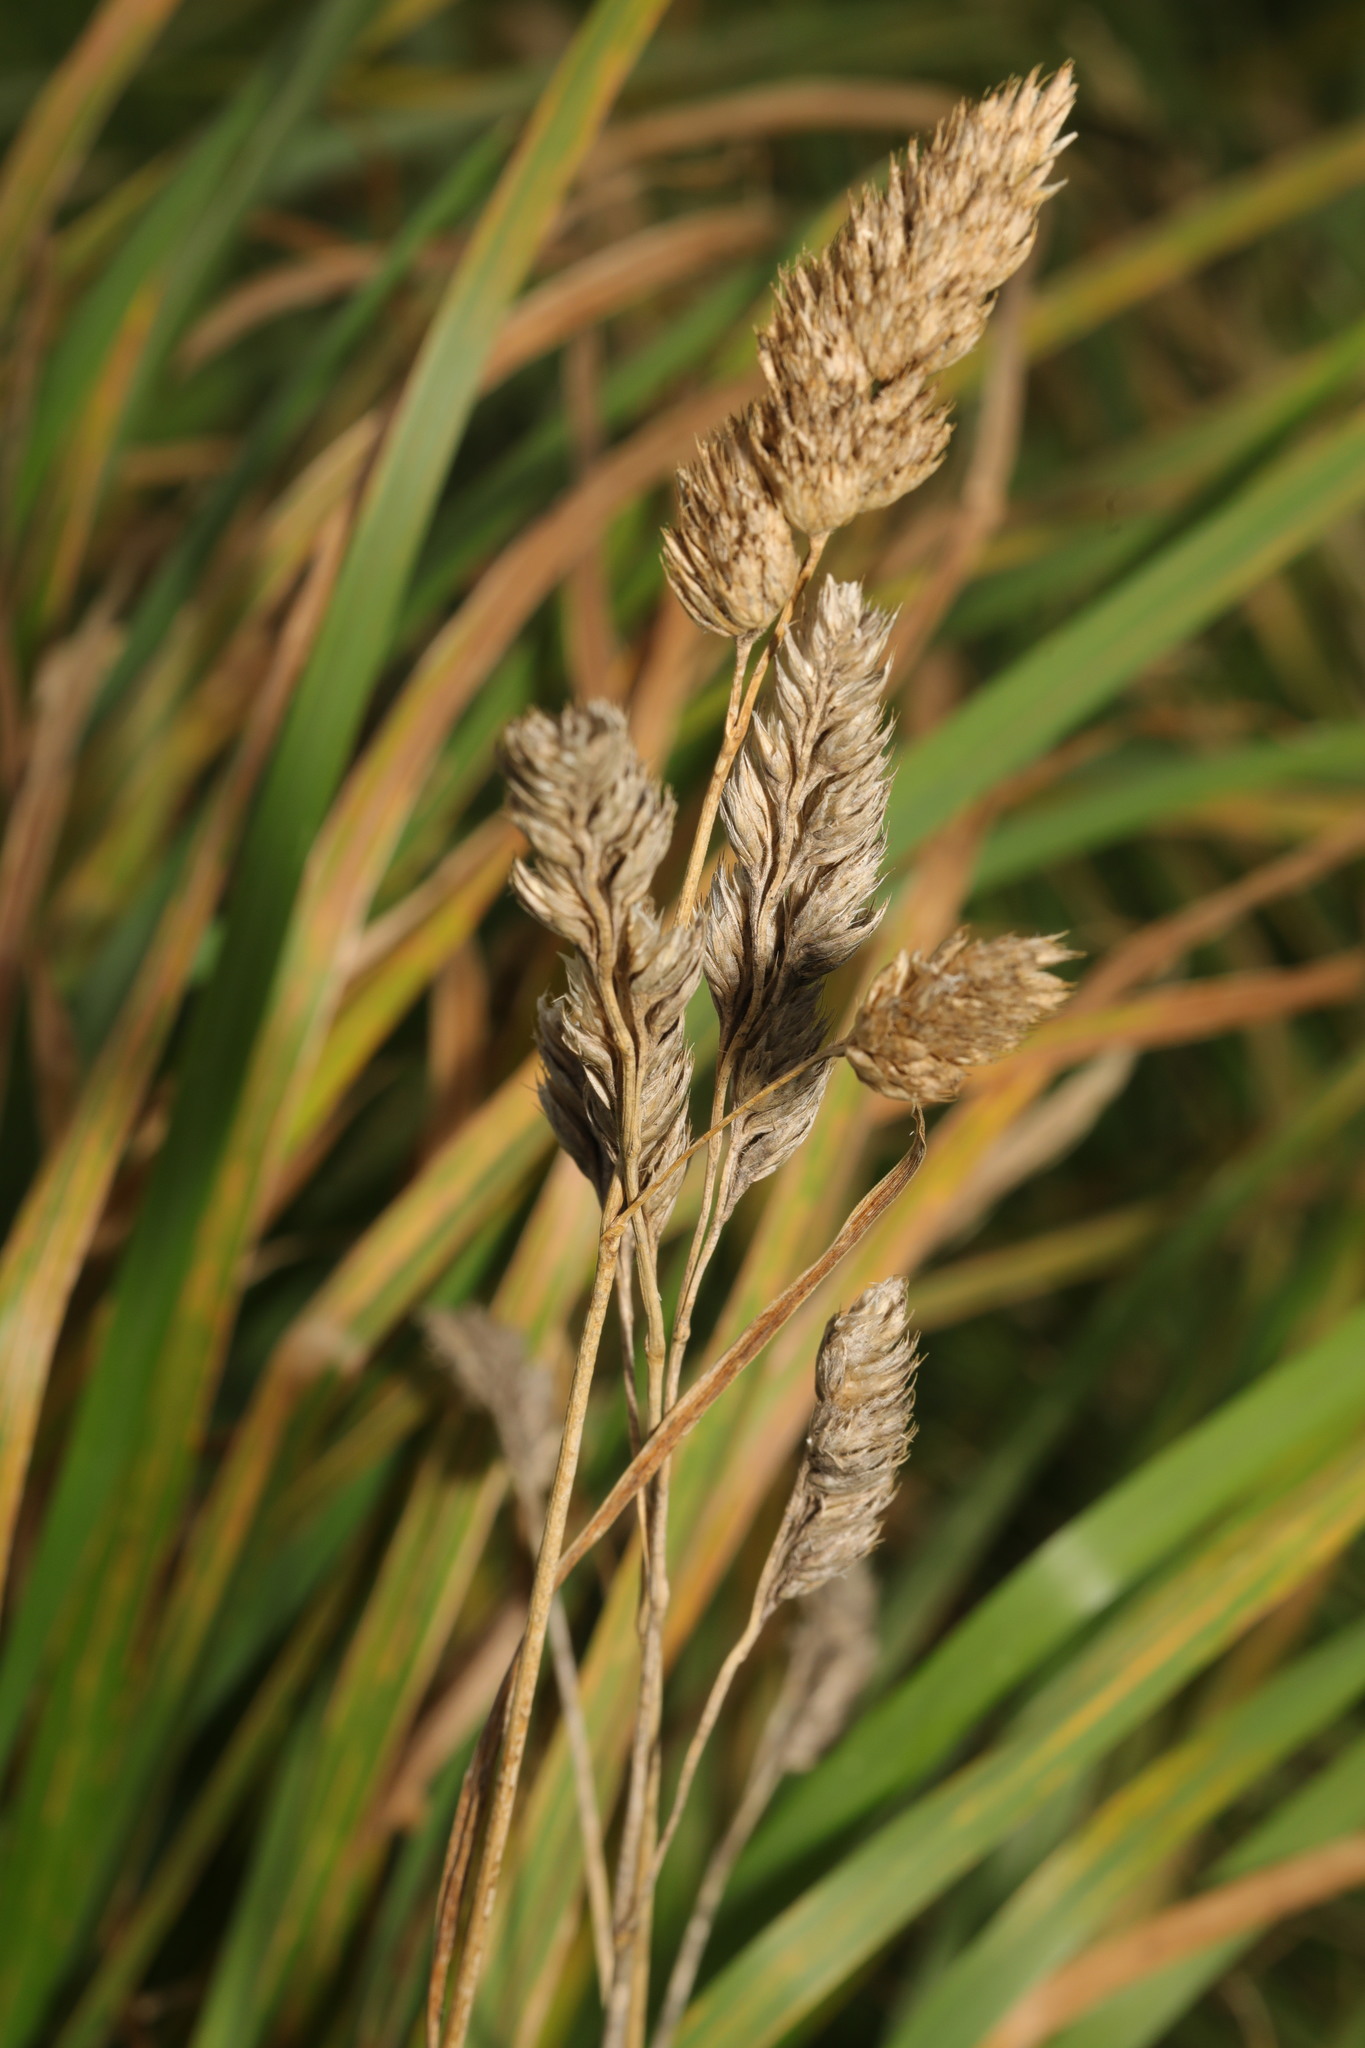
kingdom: Plantae
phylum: Tracheophyta
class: Liliopsida
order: Poales
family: Poaceae
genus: Dactylis
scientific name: Dactylis glomerata
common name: Orchardgrass
